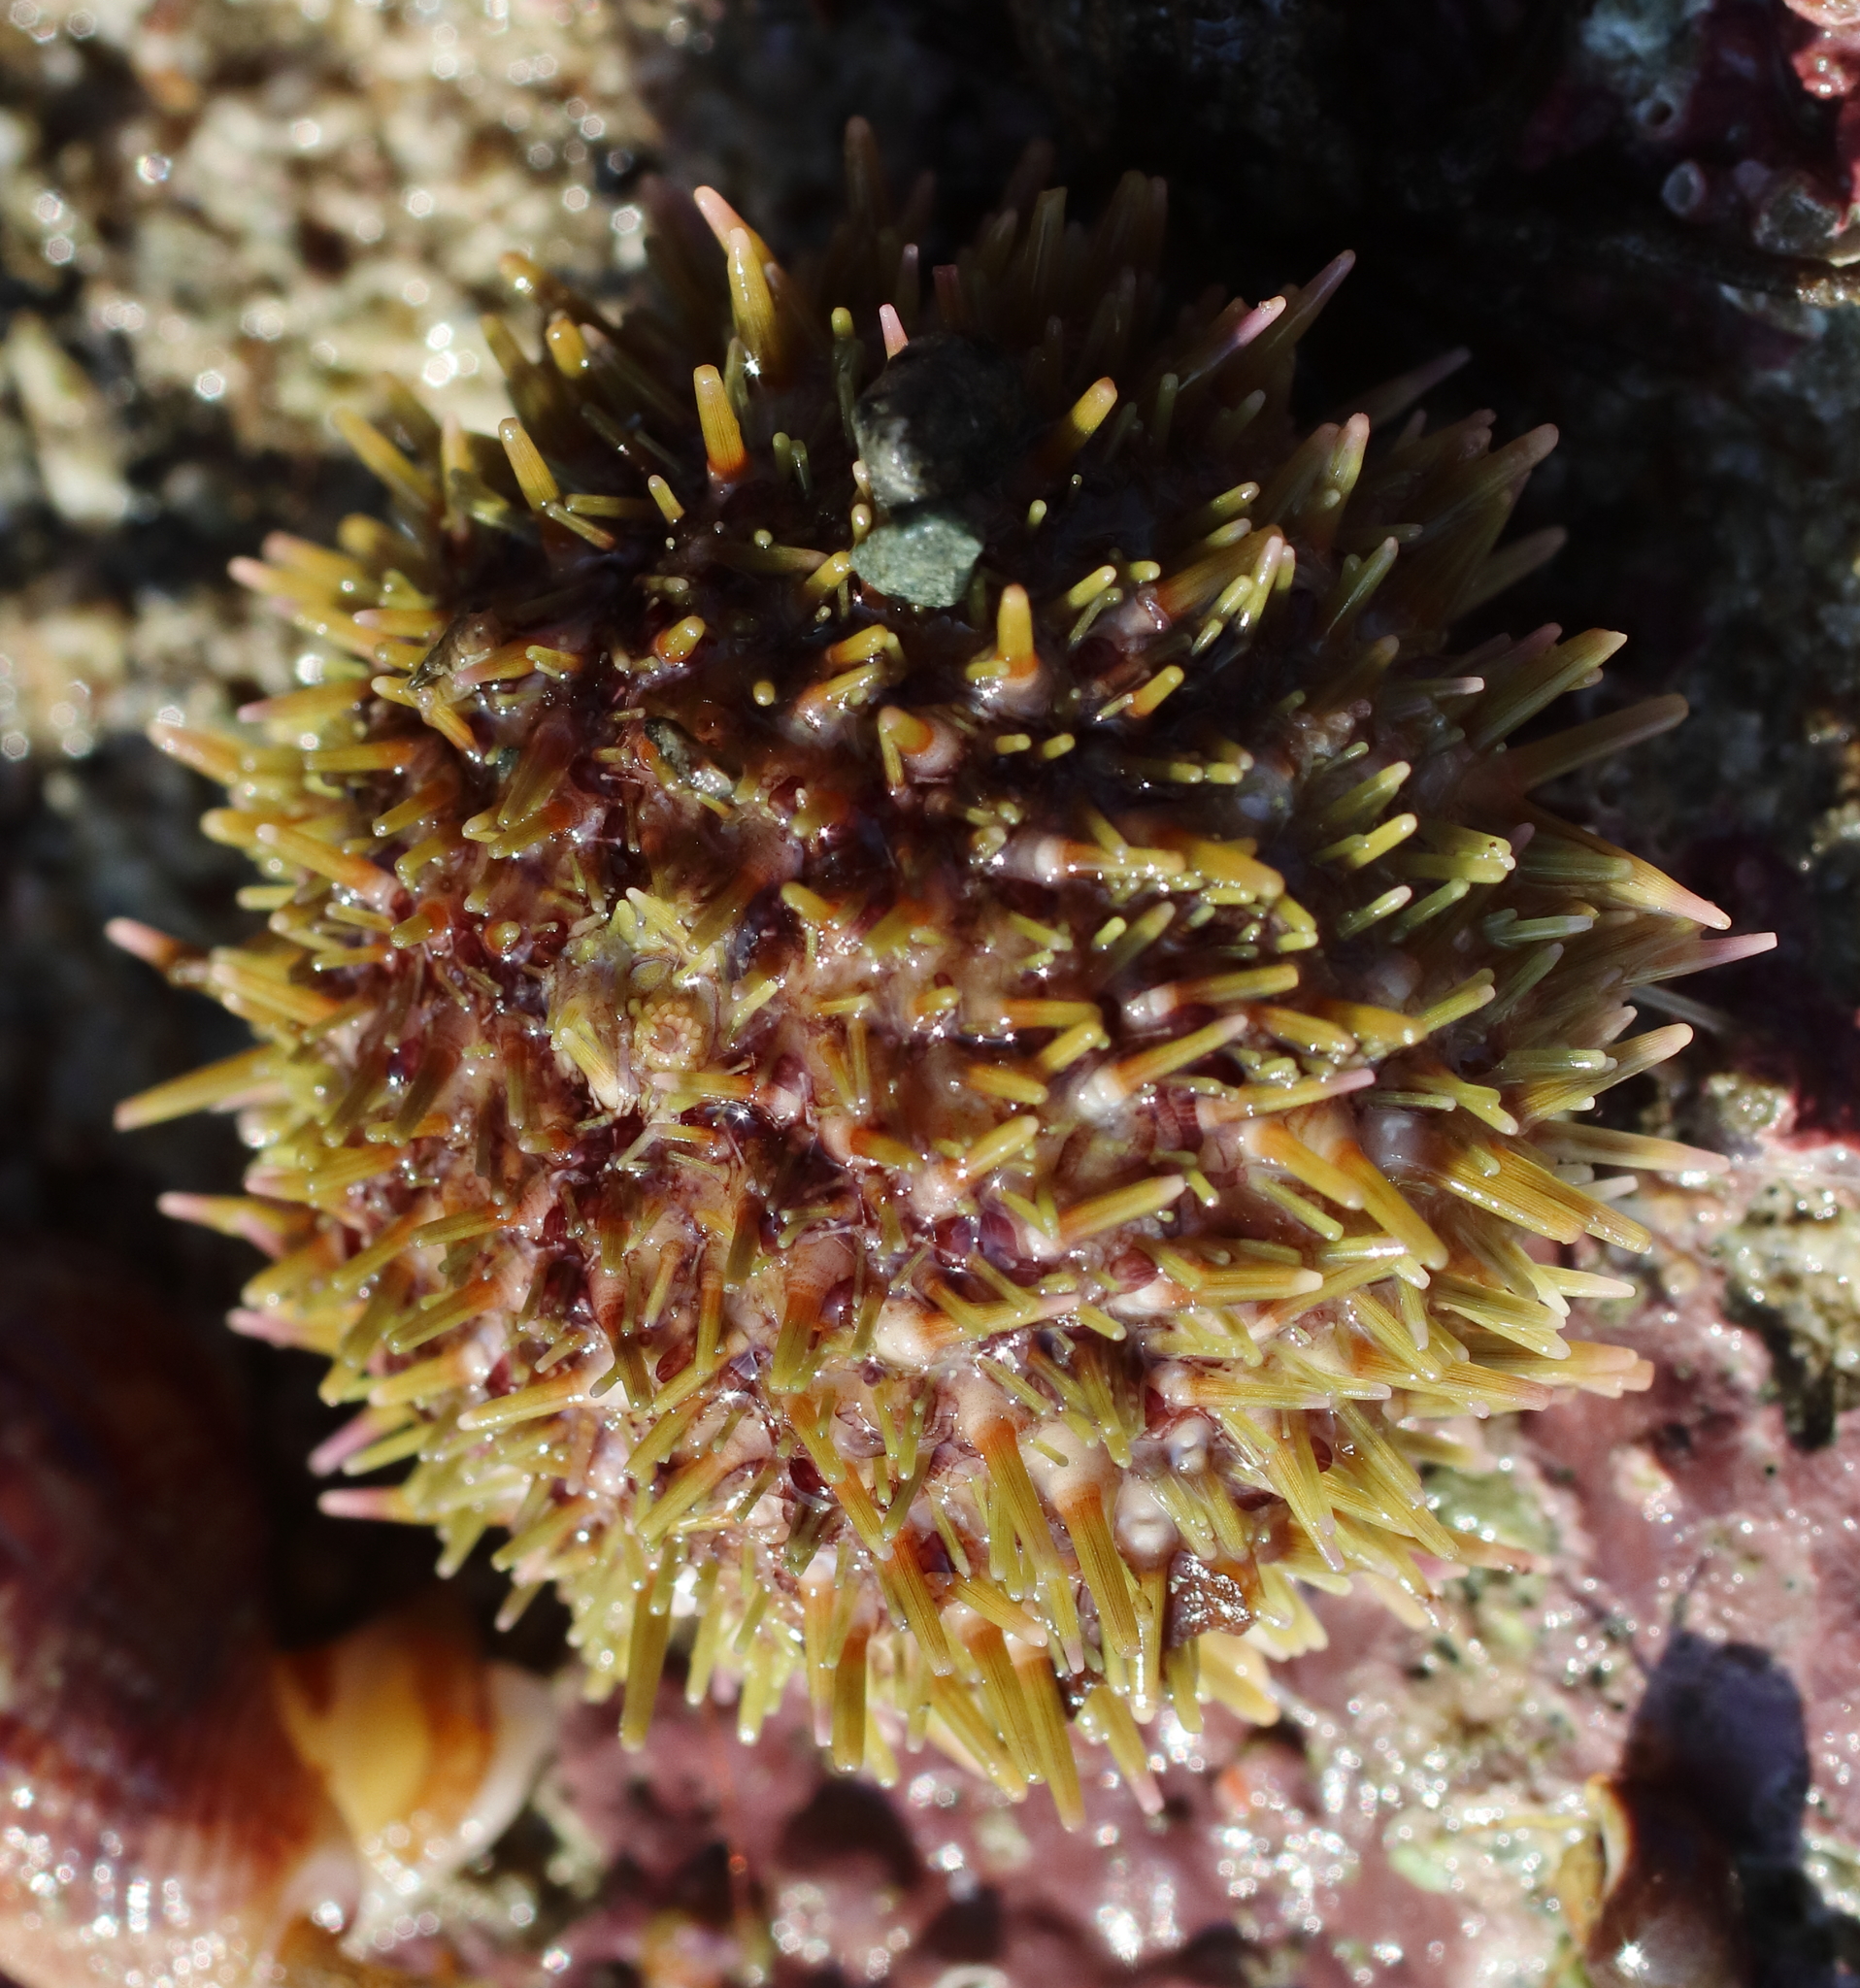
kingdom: Animalia
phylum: Echinodermata
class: Echinoidea
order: Camarodonta
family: Strongylocentrotidae
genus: Strongylocentrotus
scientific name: Strongylocentrotus droebachiensis
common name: Northern sea urchin
